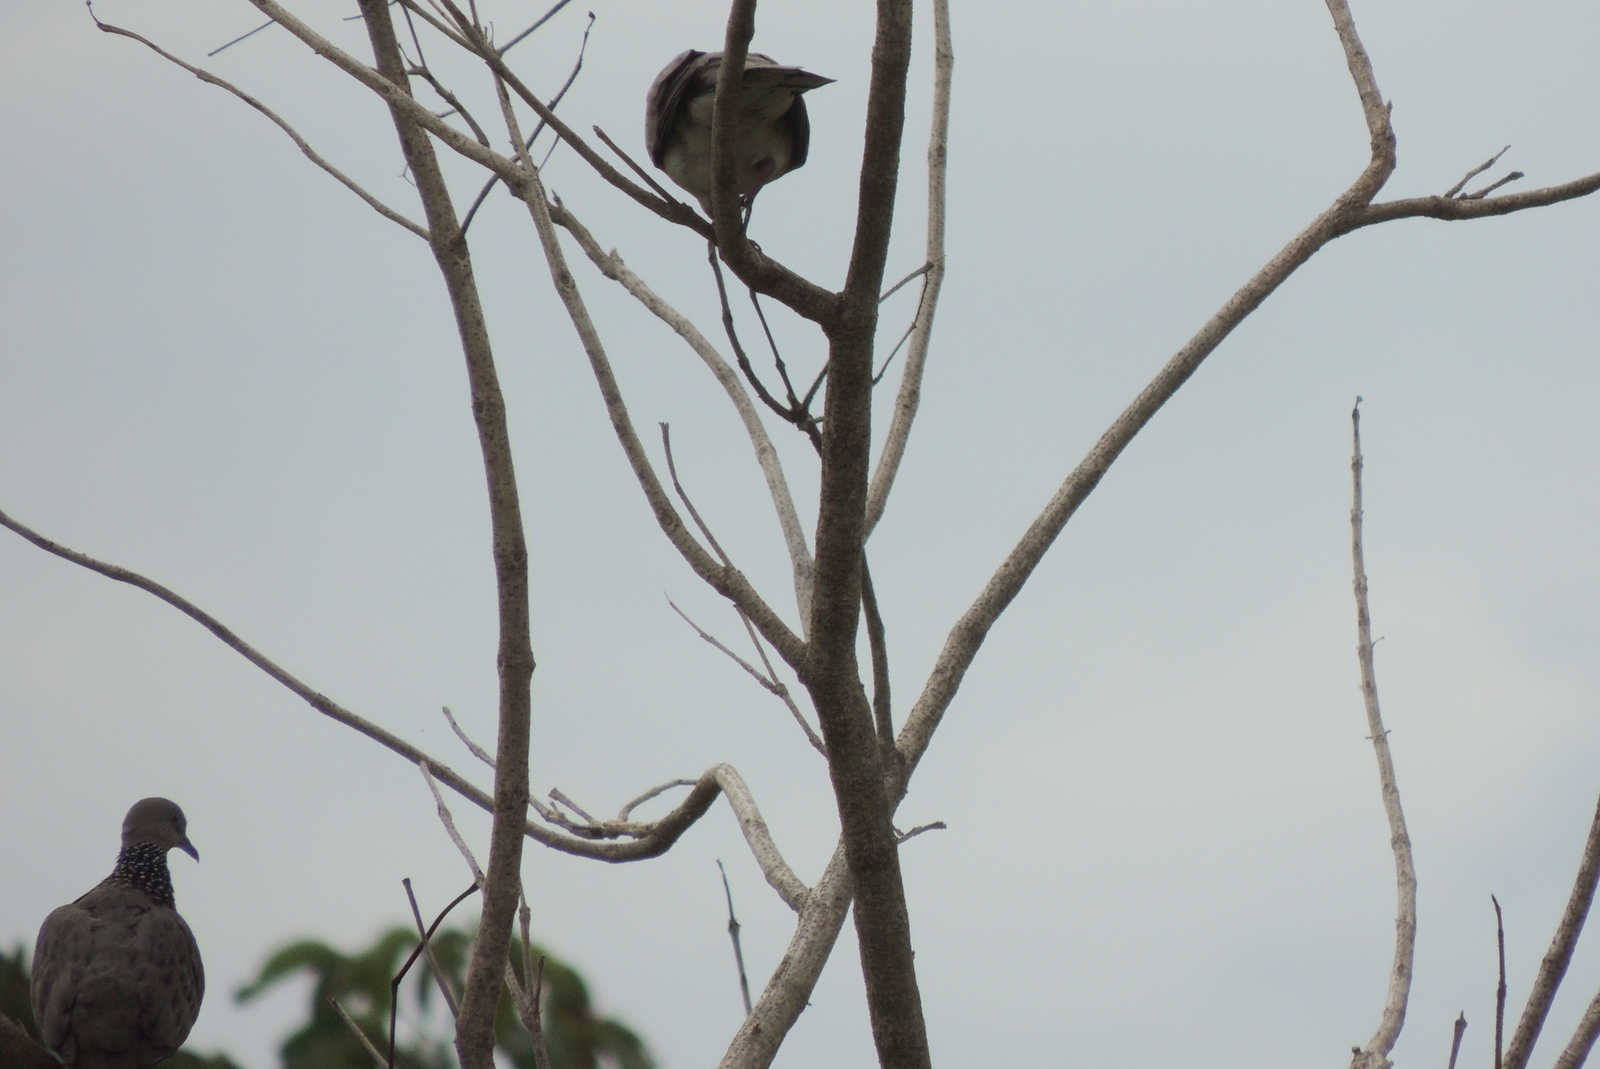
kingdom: Animalia
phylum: Chordata
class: Aves
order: Columbiformes
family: Columbidae
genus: Spilopelia
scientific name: Spilopelia chinensis
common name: Spotted dove
